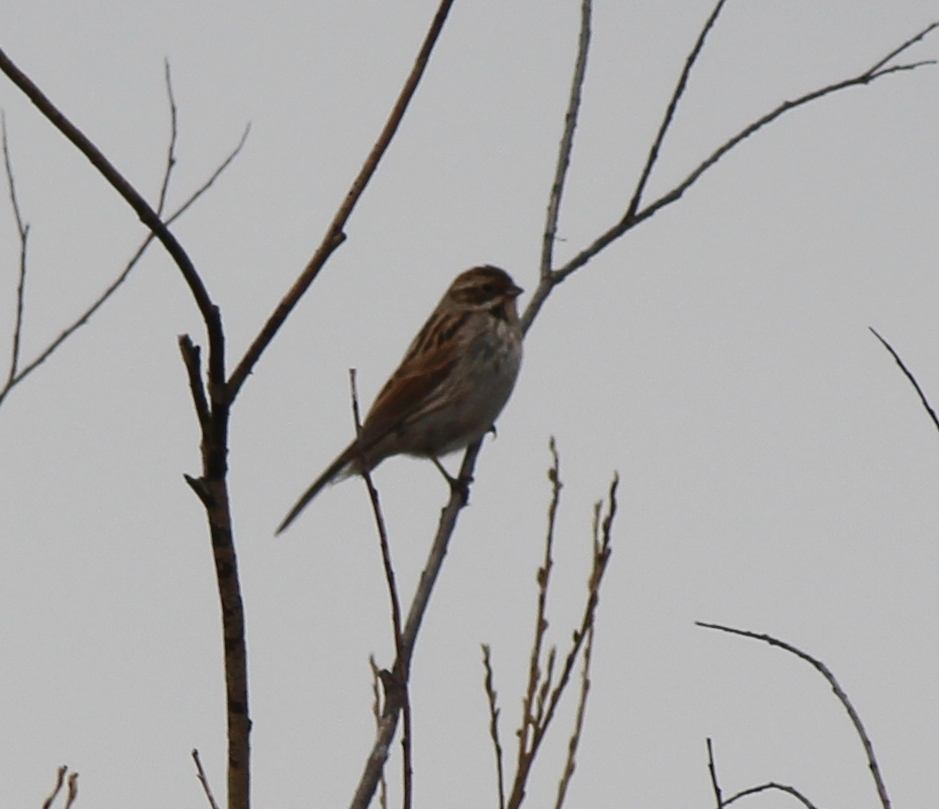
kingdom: Animalia
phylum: Chordata
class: Aves
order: Passeriformes
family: Emberizidae
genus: Emberiza
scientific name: Emberiza schoeniclus
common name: Reed bunting
